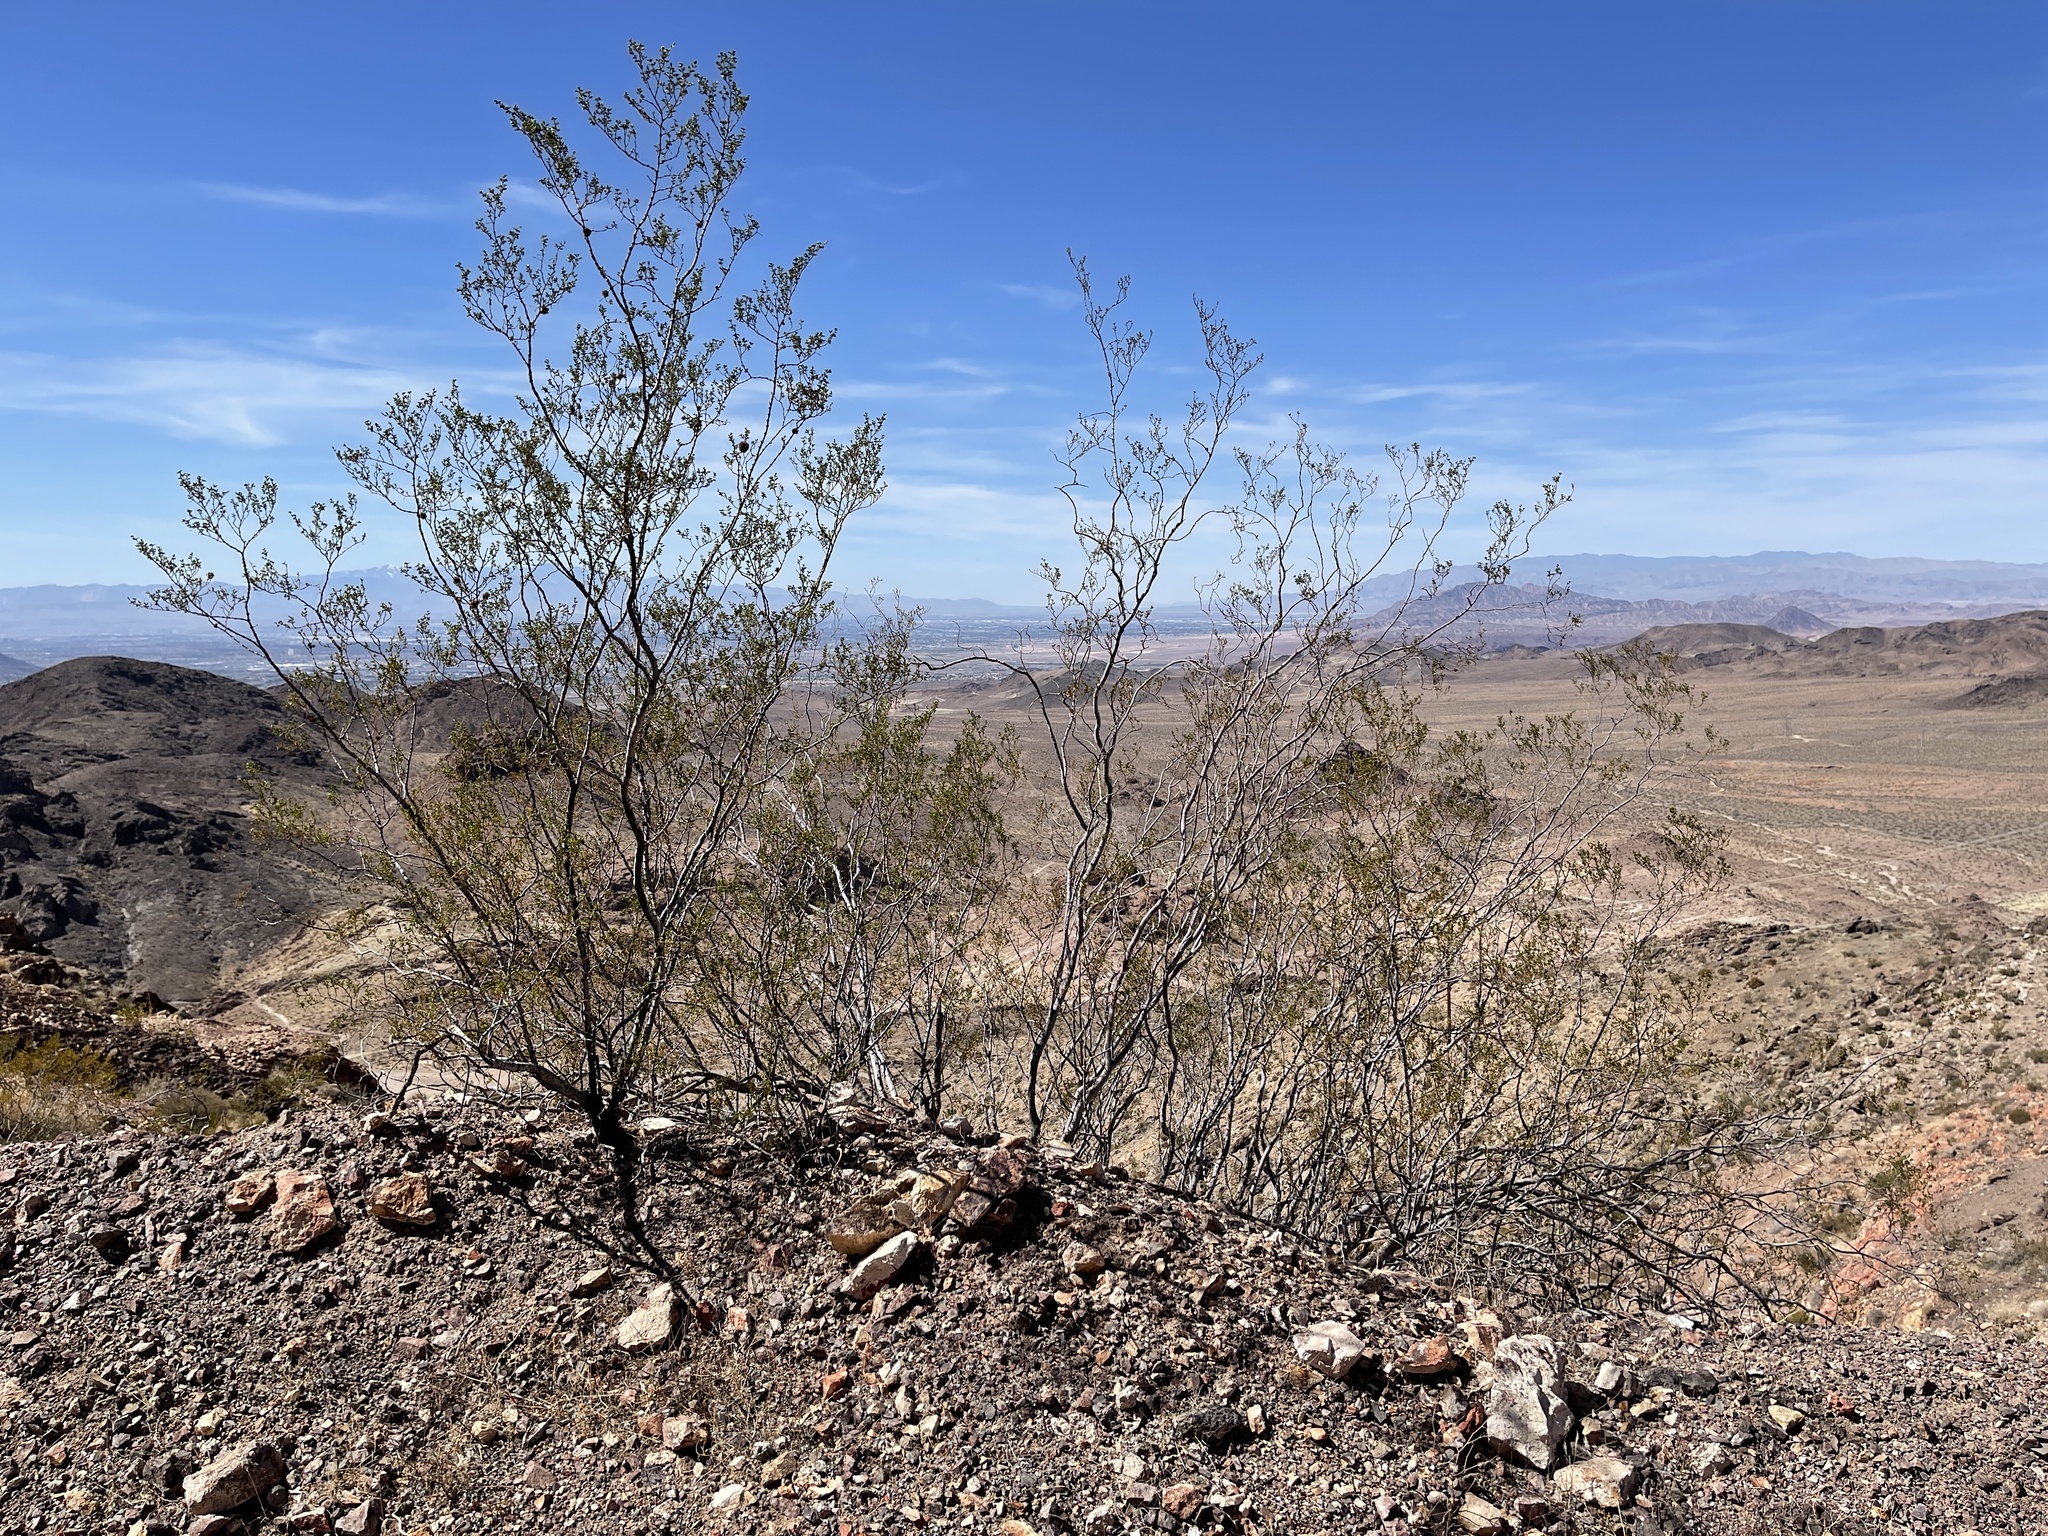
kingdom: Plantae
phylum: Tracheophyta
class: Magnoliopsida
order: Zygophyllales
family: Zygophyllaceae
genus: Larrea
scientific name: Larrea tridentata
